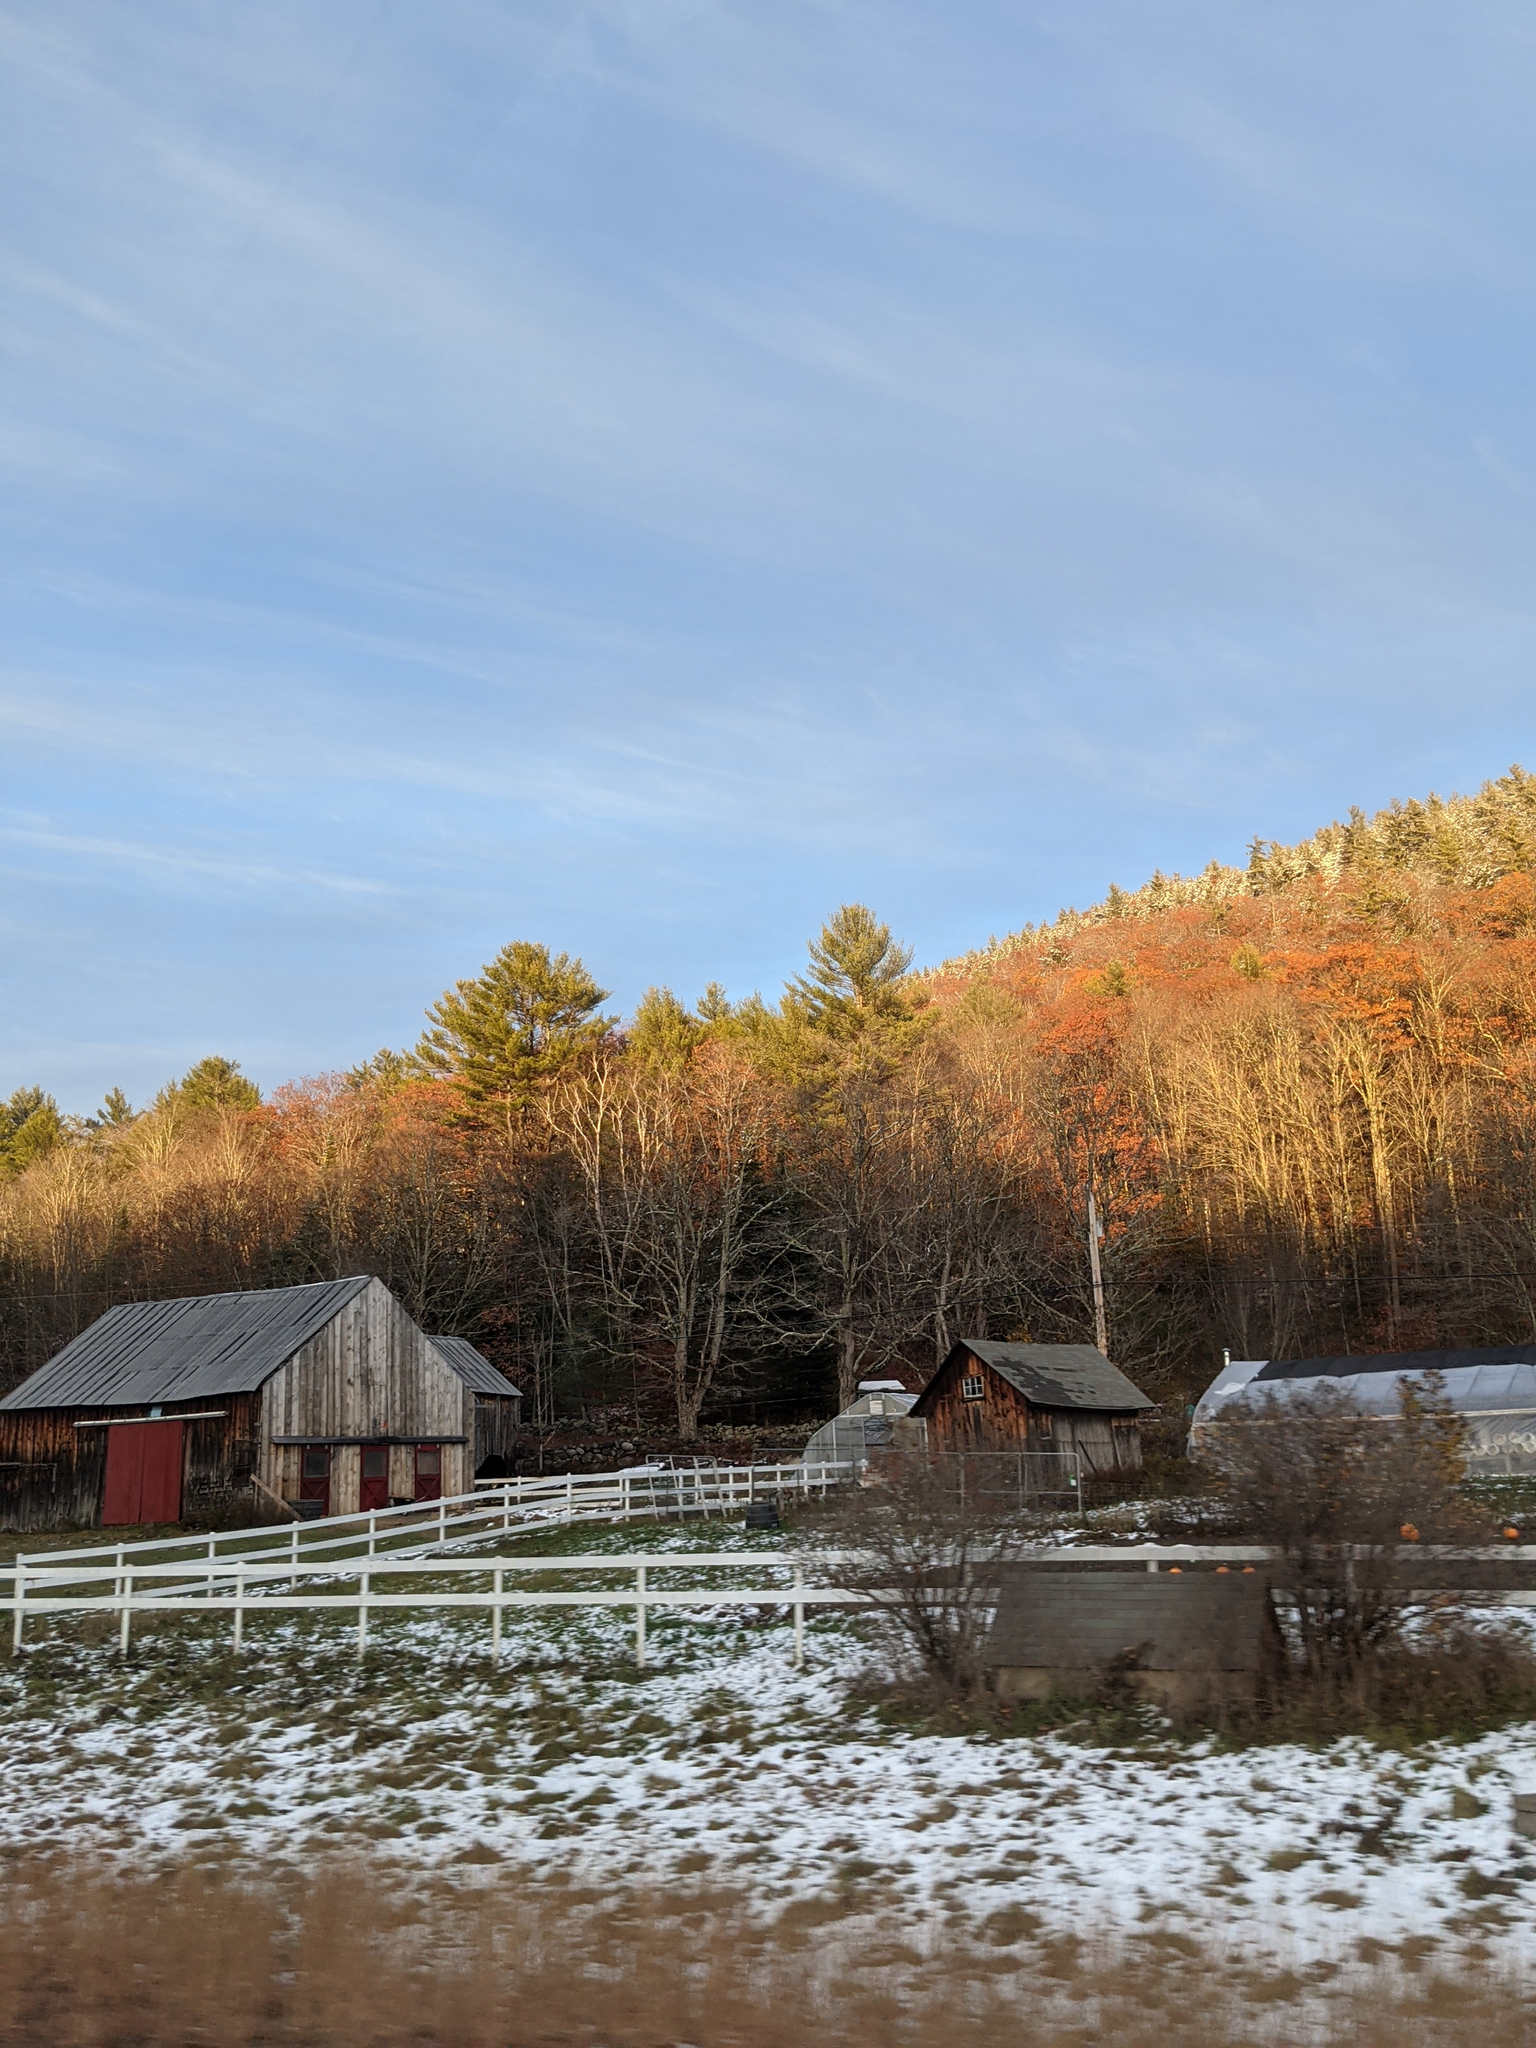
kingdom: Plantae
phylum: Tracheophyta
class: Pinopsida
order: Pinales
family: Pinaceae
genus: Pinus
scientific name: Pinus strobus
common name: Weymouth pine
